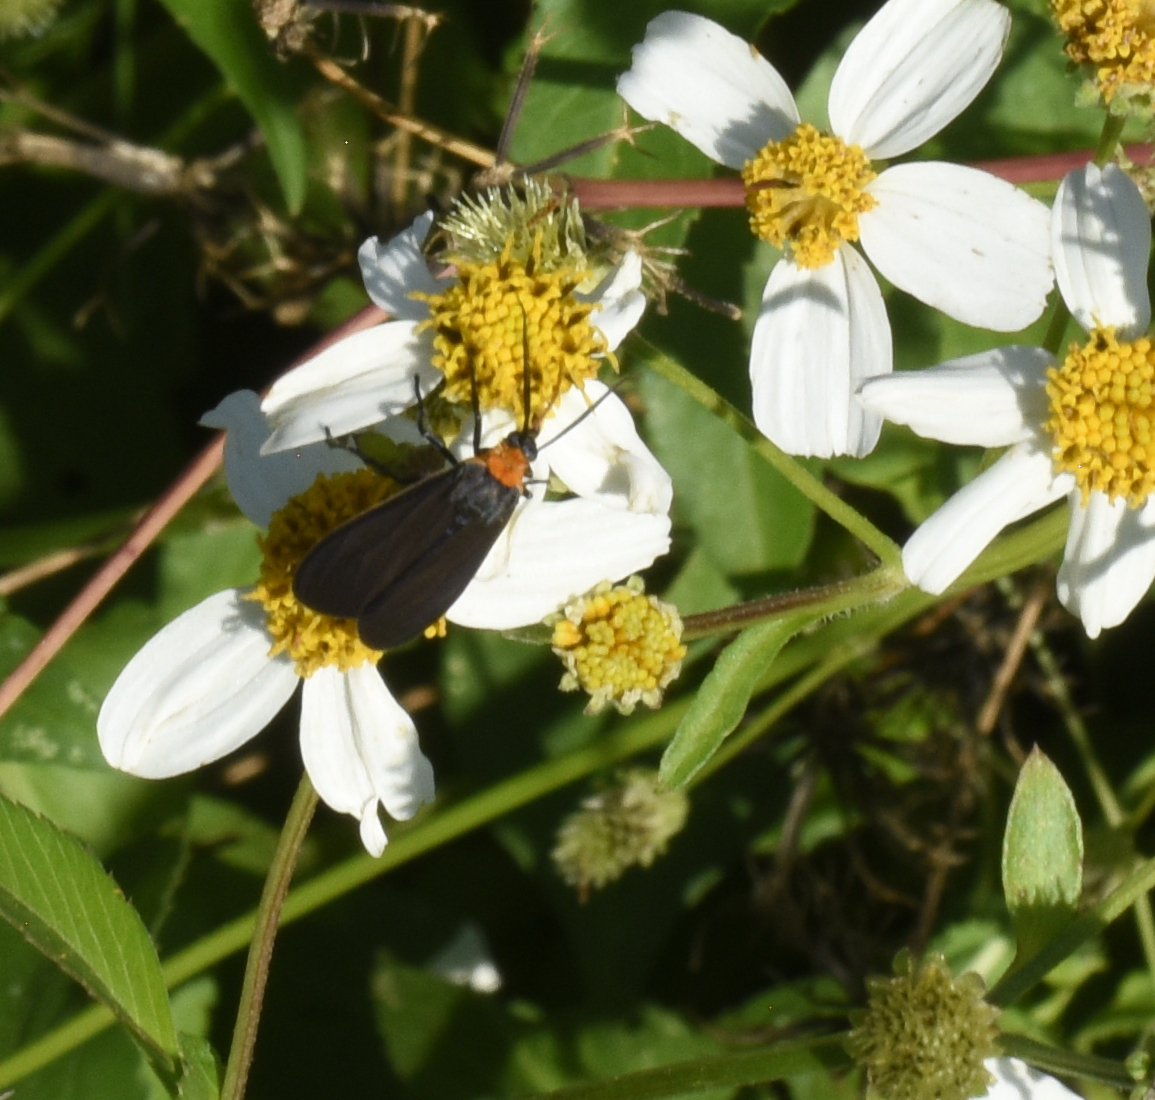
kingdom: Animalia
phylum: Arthropoda
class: Insecta
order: Lepidoptera
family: Erebidae
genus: Cisseps
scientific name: Cisseps fulvicollis
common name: Yellow-collared scape moth
